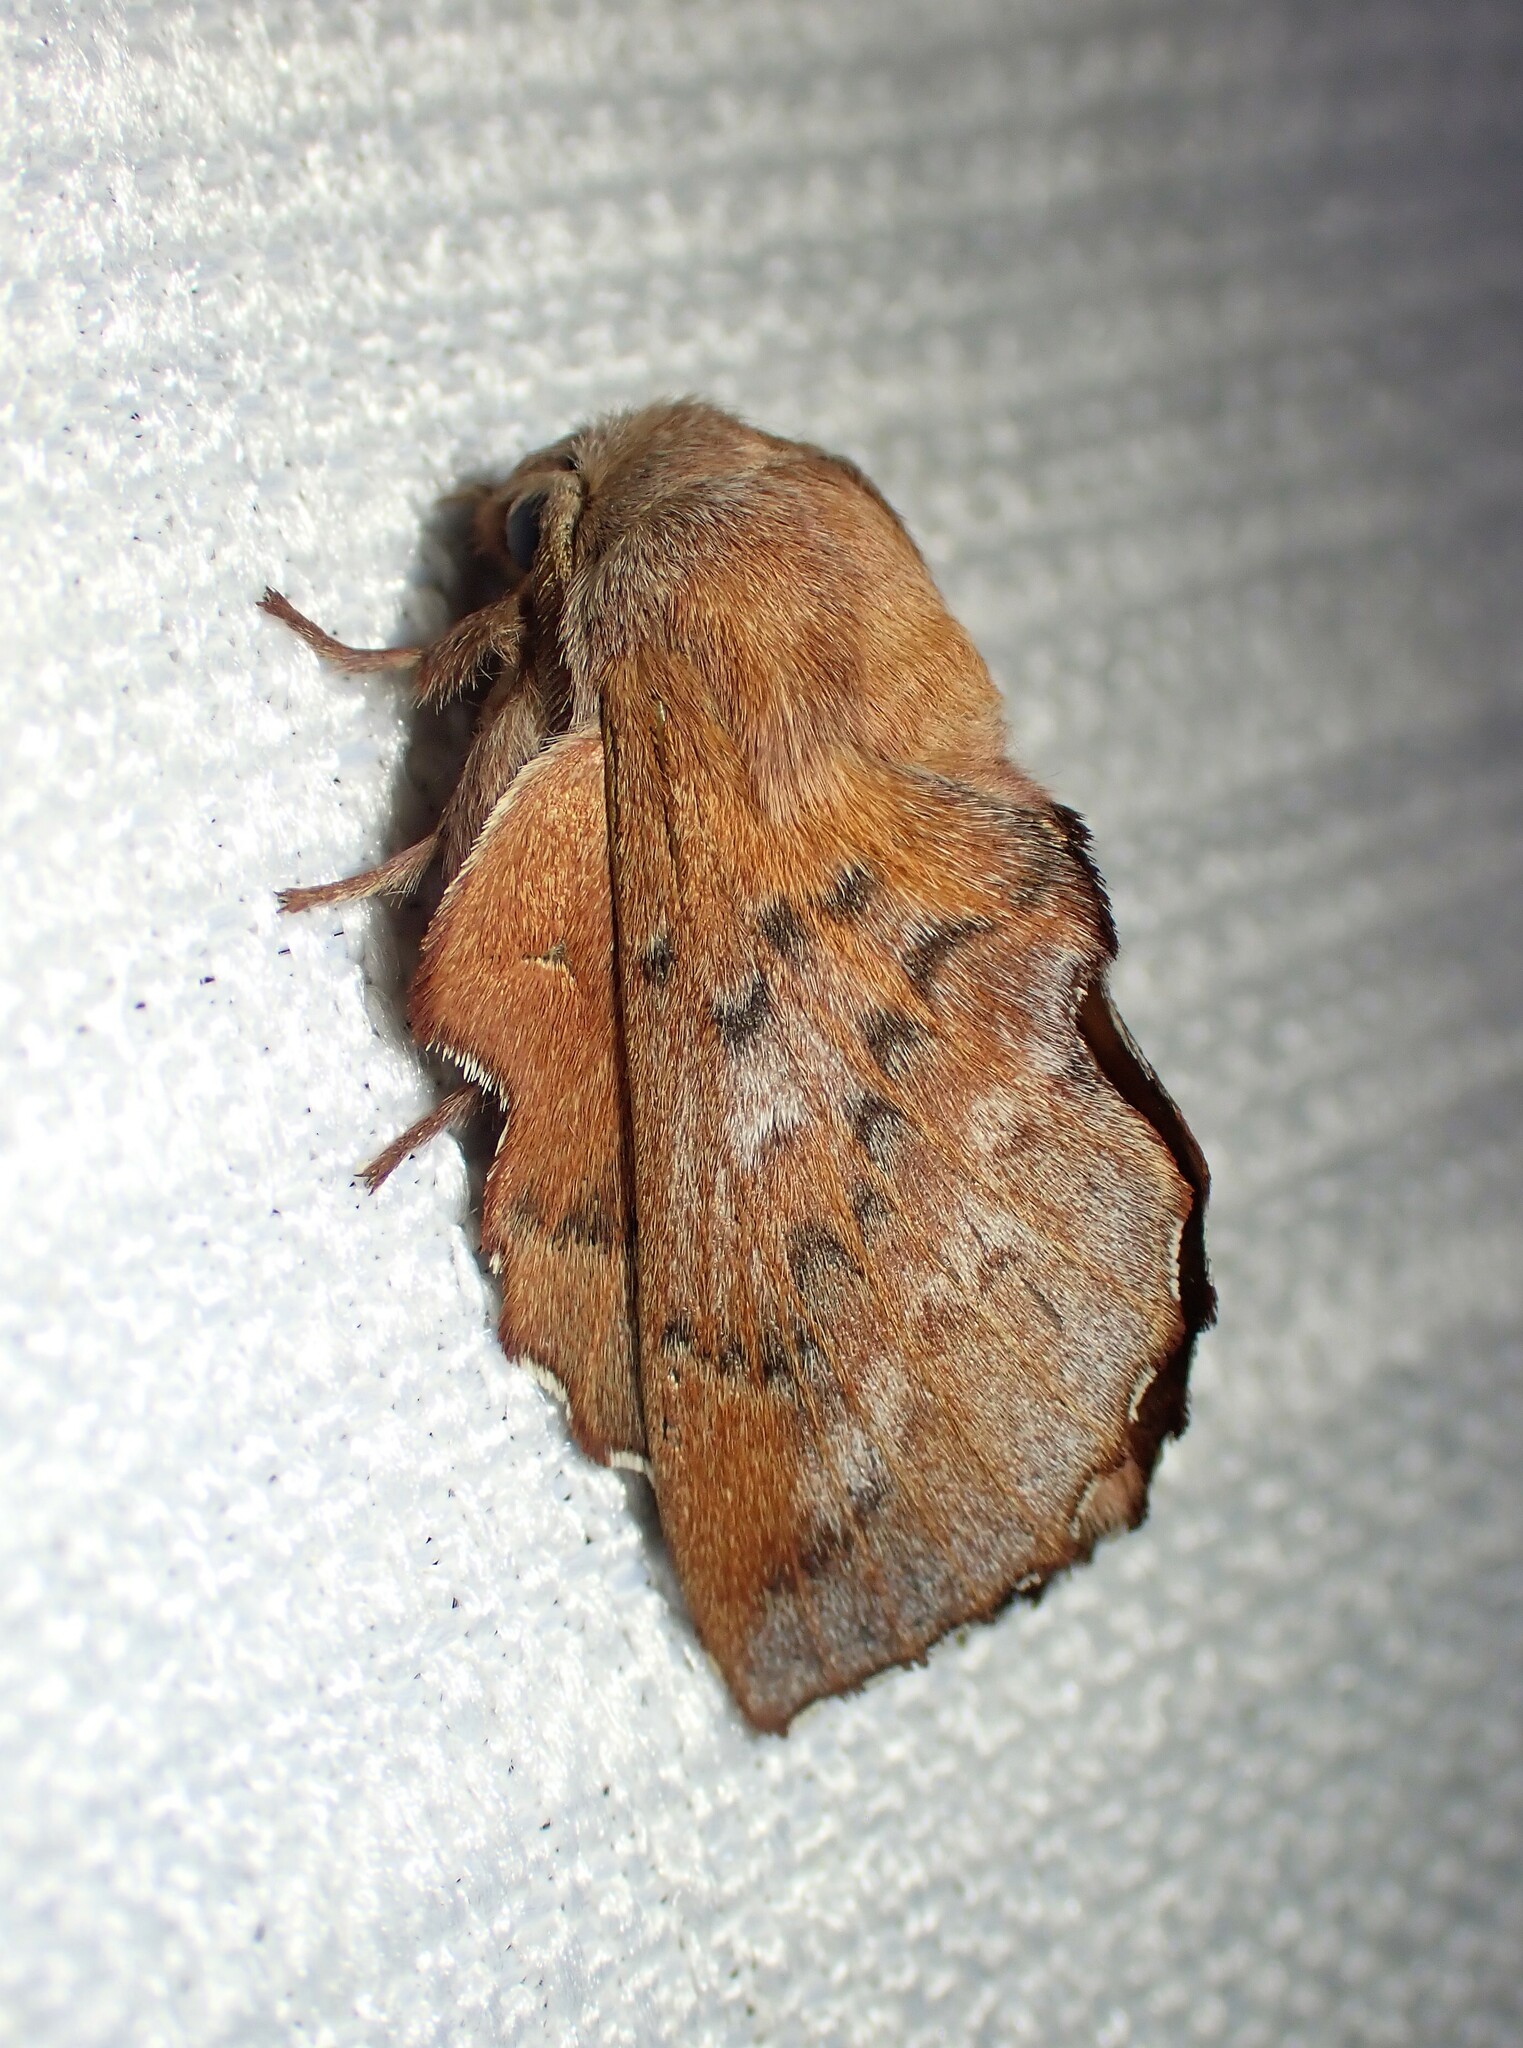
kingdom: Animalia
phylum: Arthropoda
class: Insecta
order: Lepidoptera
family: Lasiocampidae
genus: Phyllodesma
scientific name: Phyllodesma americana
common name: American lappet moth
